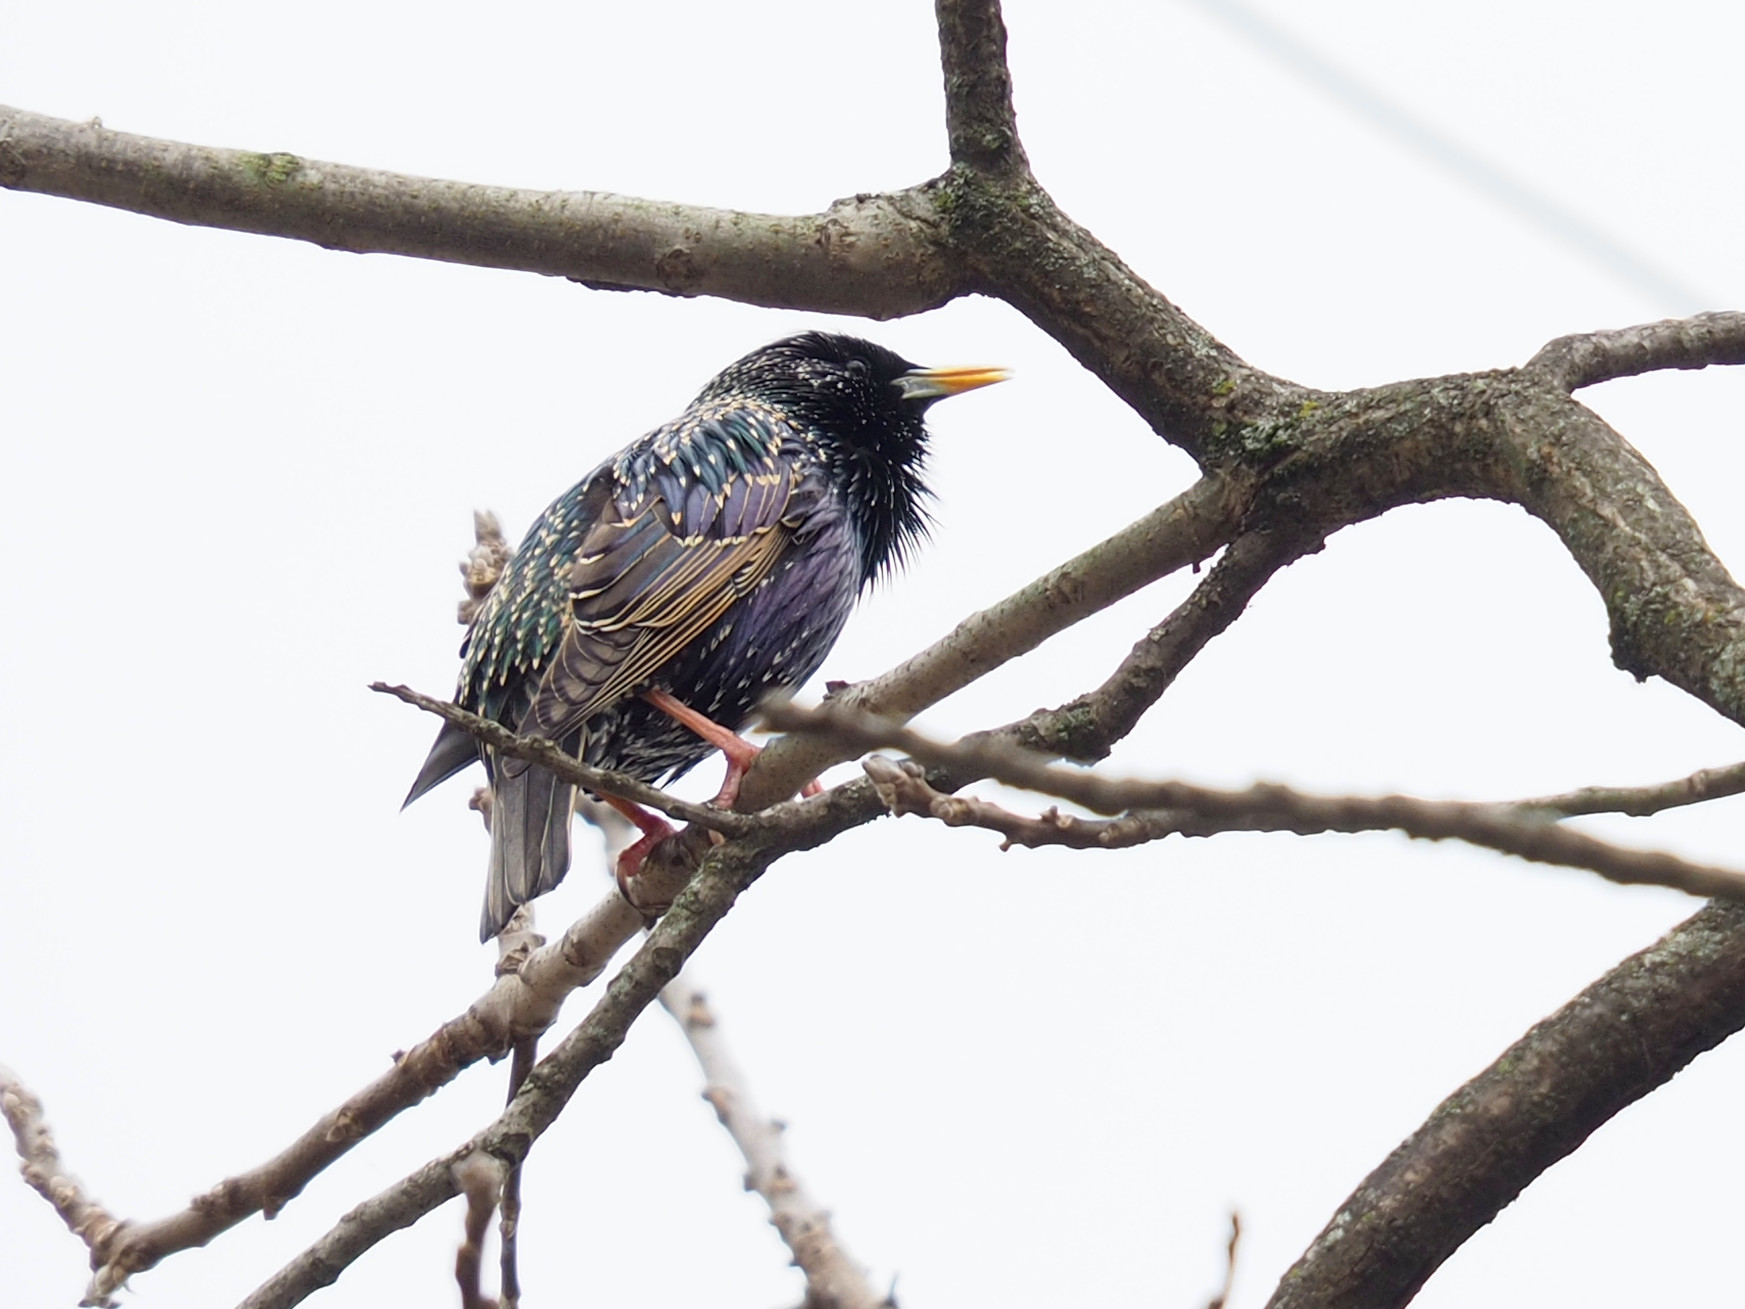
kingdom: Animalia
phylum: Chordata
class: Aves
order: Passeriformes
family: Sturnidae
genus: Sturnus
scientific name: Sturnus vulgaris
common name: Common starling
